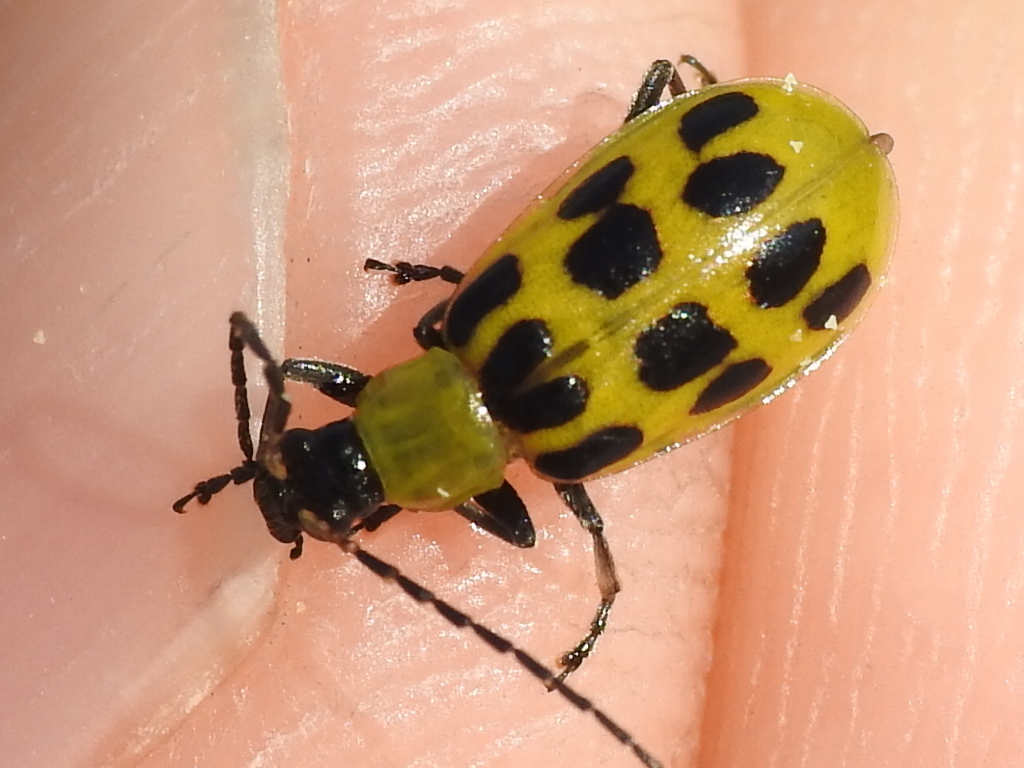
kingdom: Animalia
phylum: Arthropoda
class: Insecta
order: Coleoptera
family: Chrysomelidae
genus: Diabrotica
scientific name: Diabrotica undecimpunctata
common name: Spotted cucumber beetle
